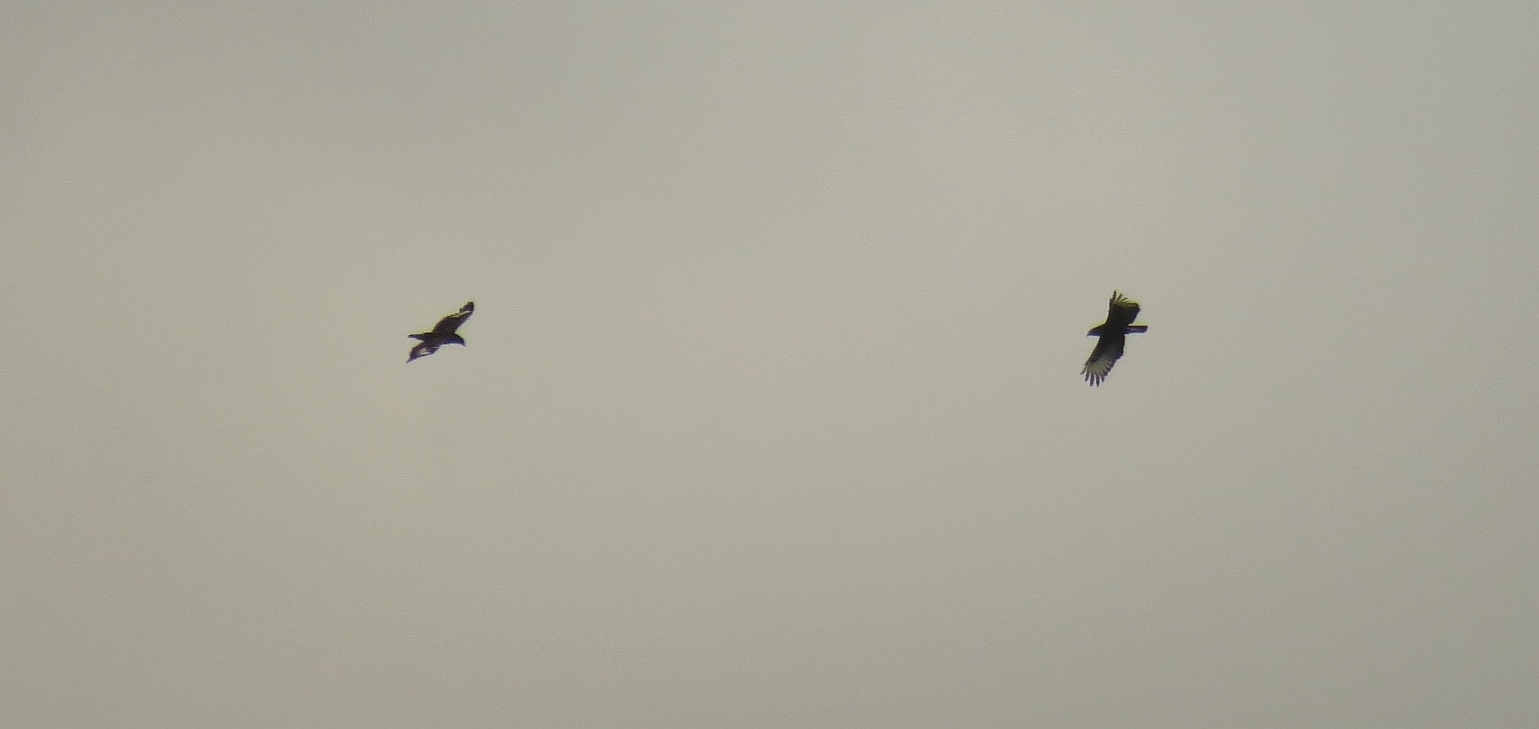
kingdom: Animalia
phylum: Chordata
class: Aves
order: Accipitriformes
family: Accipitridae
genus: Lophaetus
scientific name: Lophaetus occipitalis
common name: Long-crested eagle
